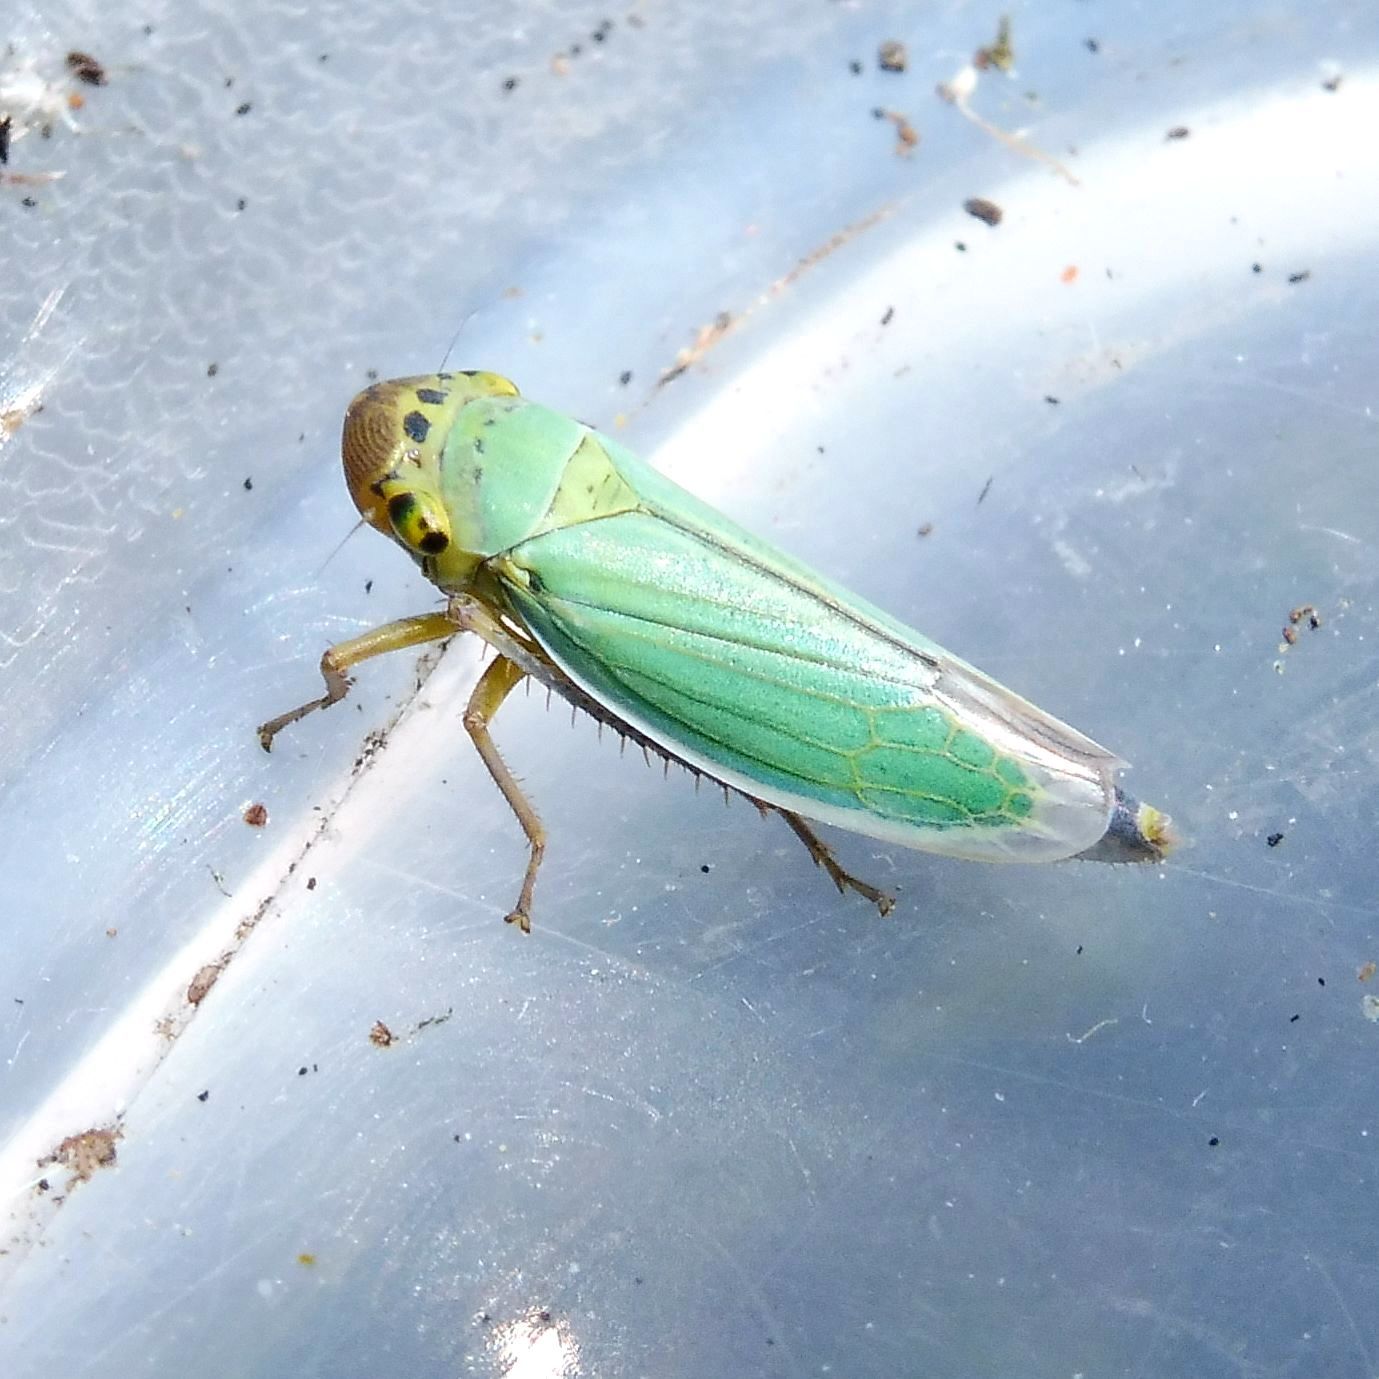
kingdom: Animalia
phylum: Arthropoda
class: Insecta
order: Hemiptera
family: Cicadellidae
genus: Cicadella
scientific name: Cicadella viridis
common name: Leafhopper
